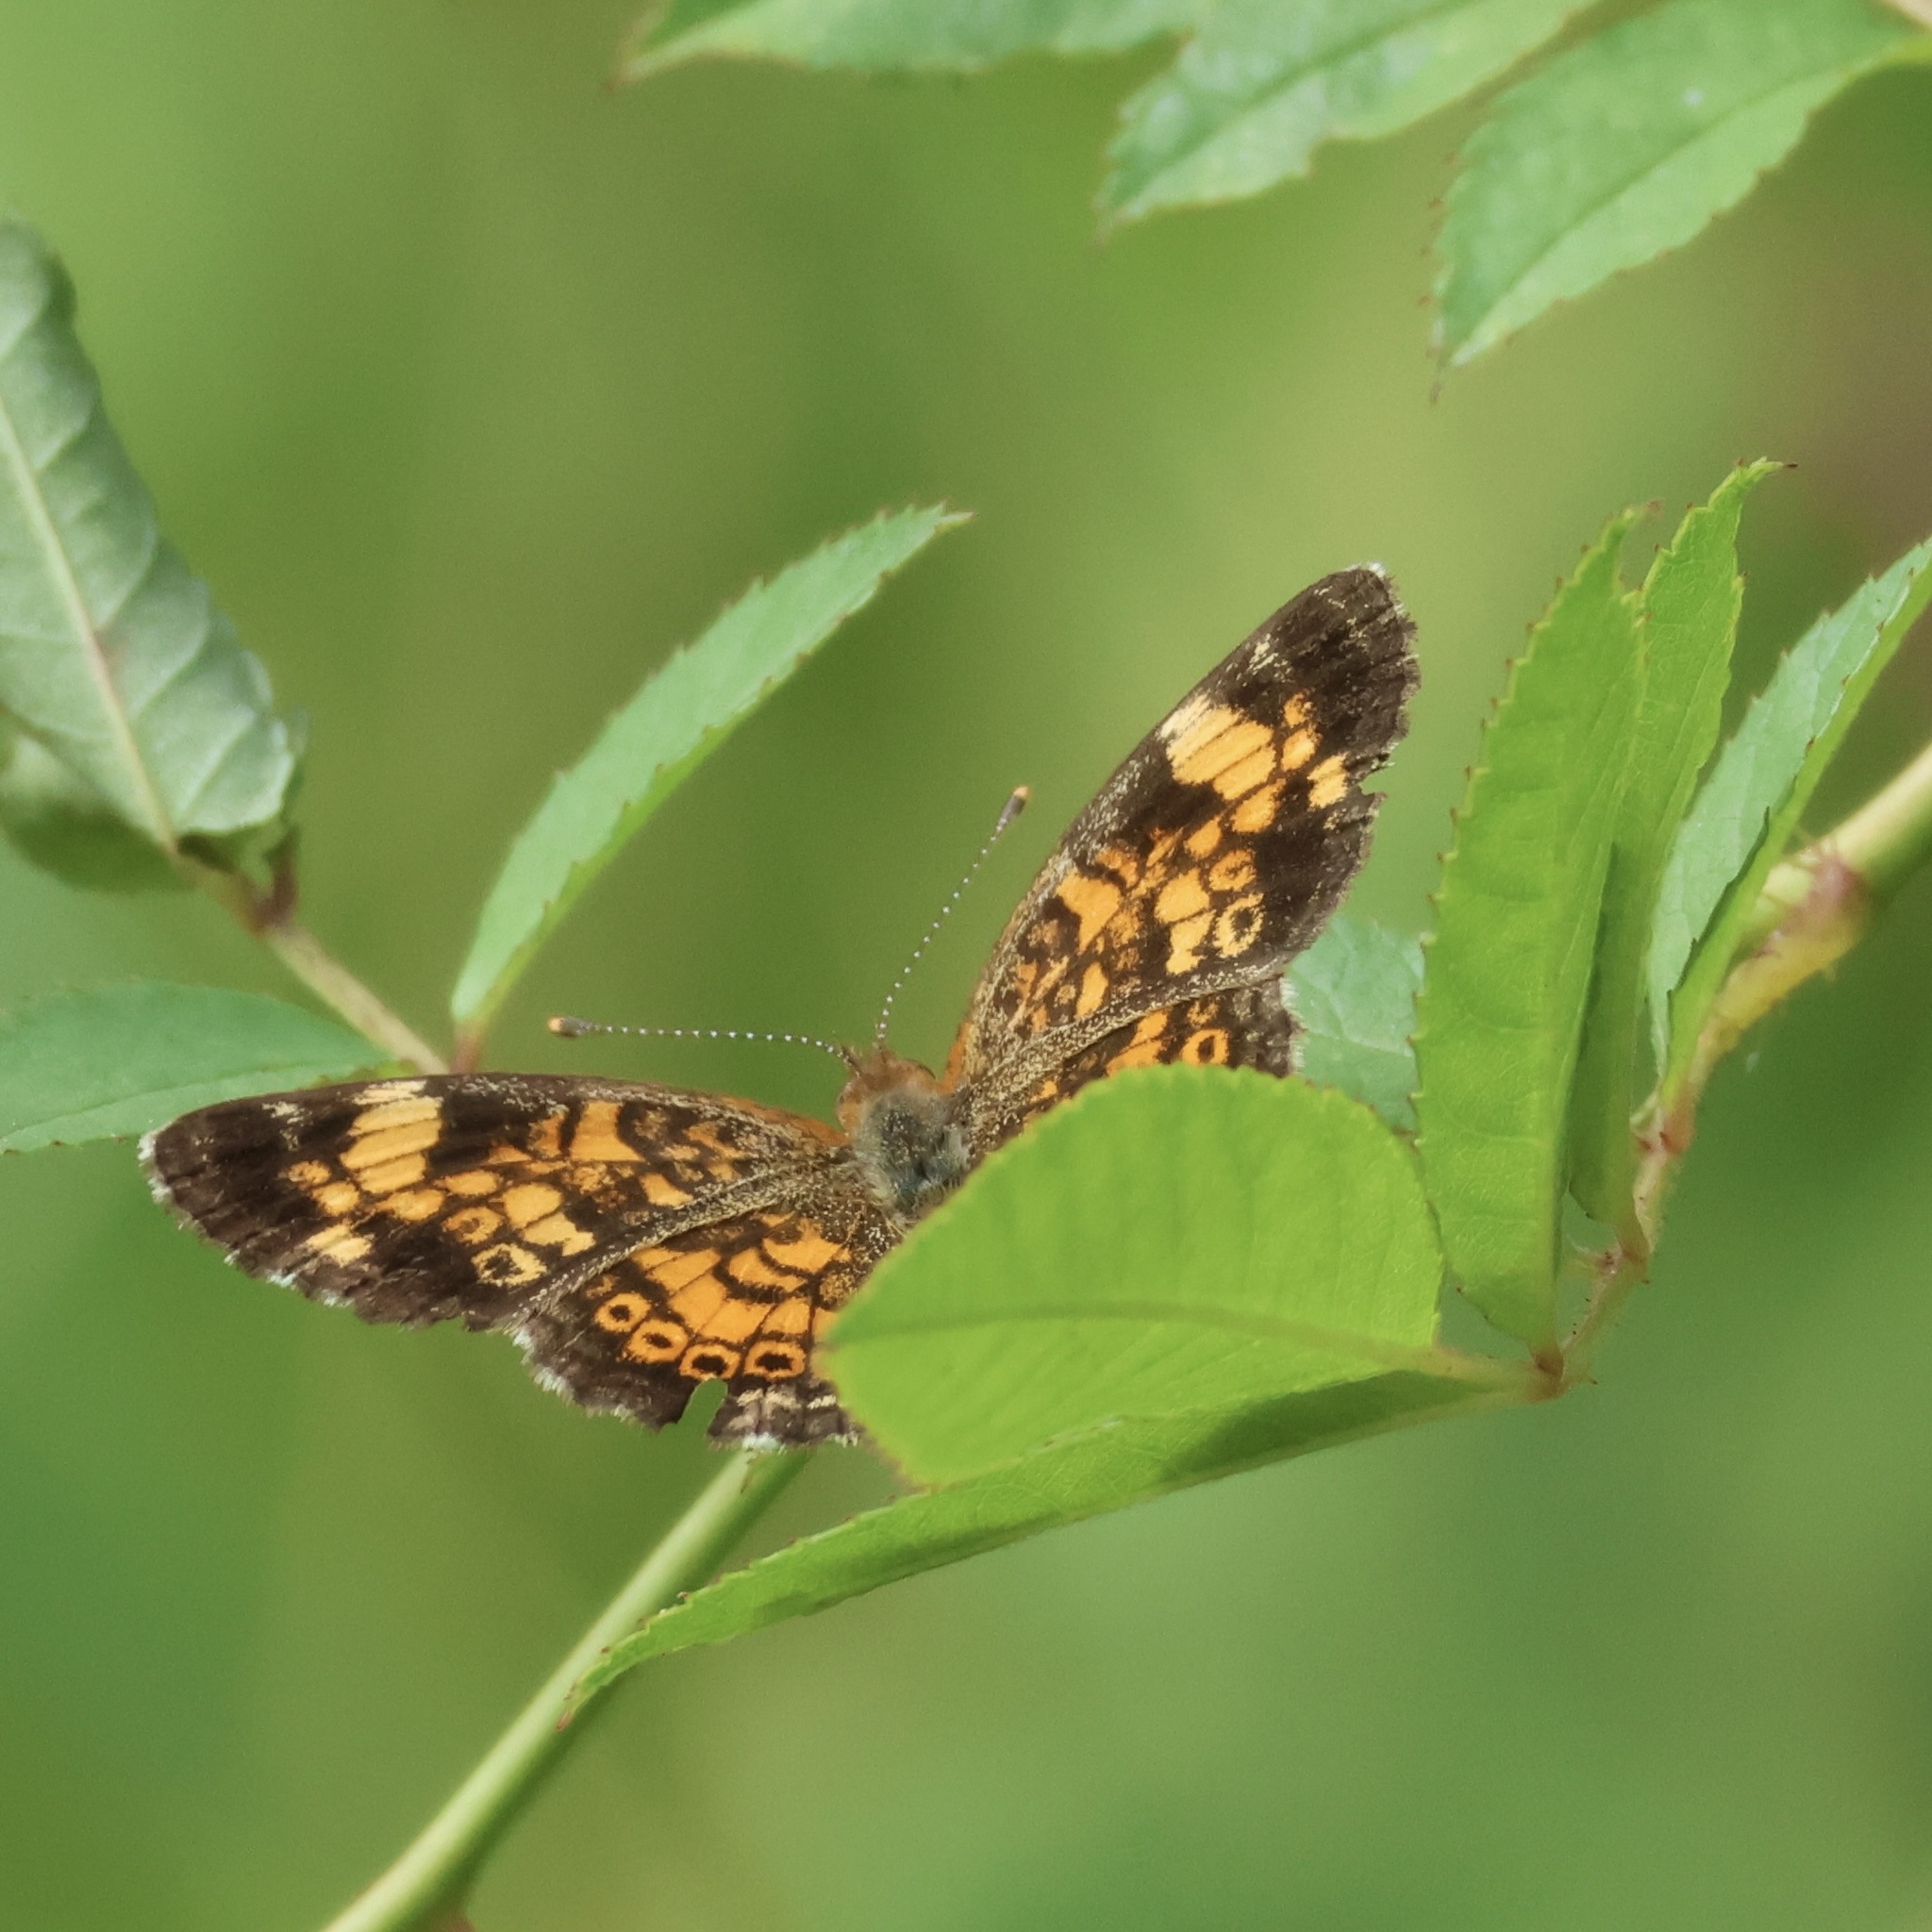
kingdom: Animalia
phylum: Arthropoda
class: Insecta
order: Lepidoptera
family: Nymphalidae
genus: Phyciodes
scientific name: Phyciodes tharos
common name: Pearl crescent
